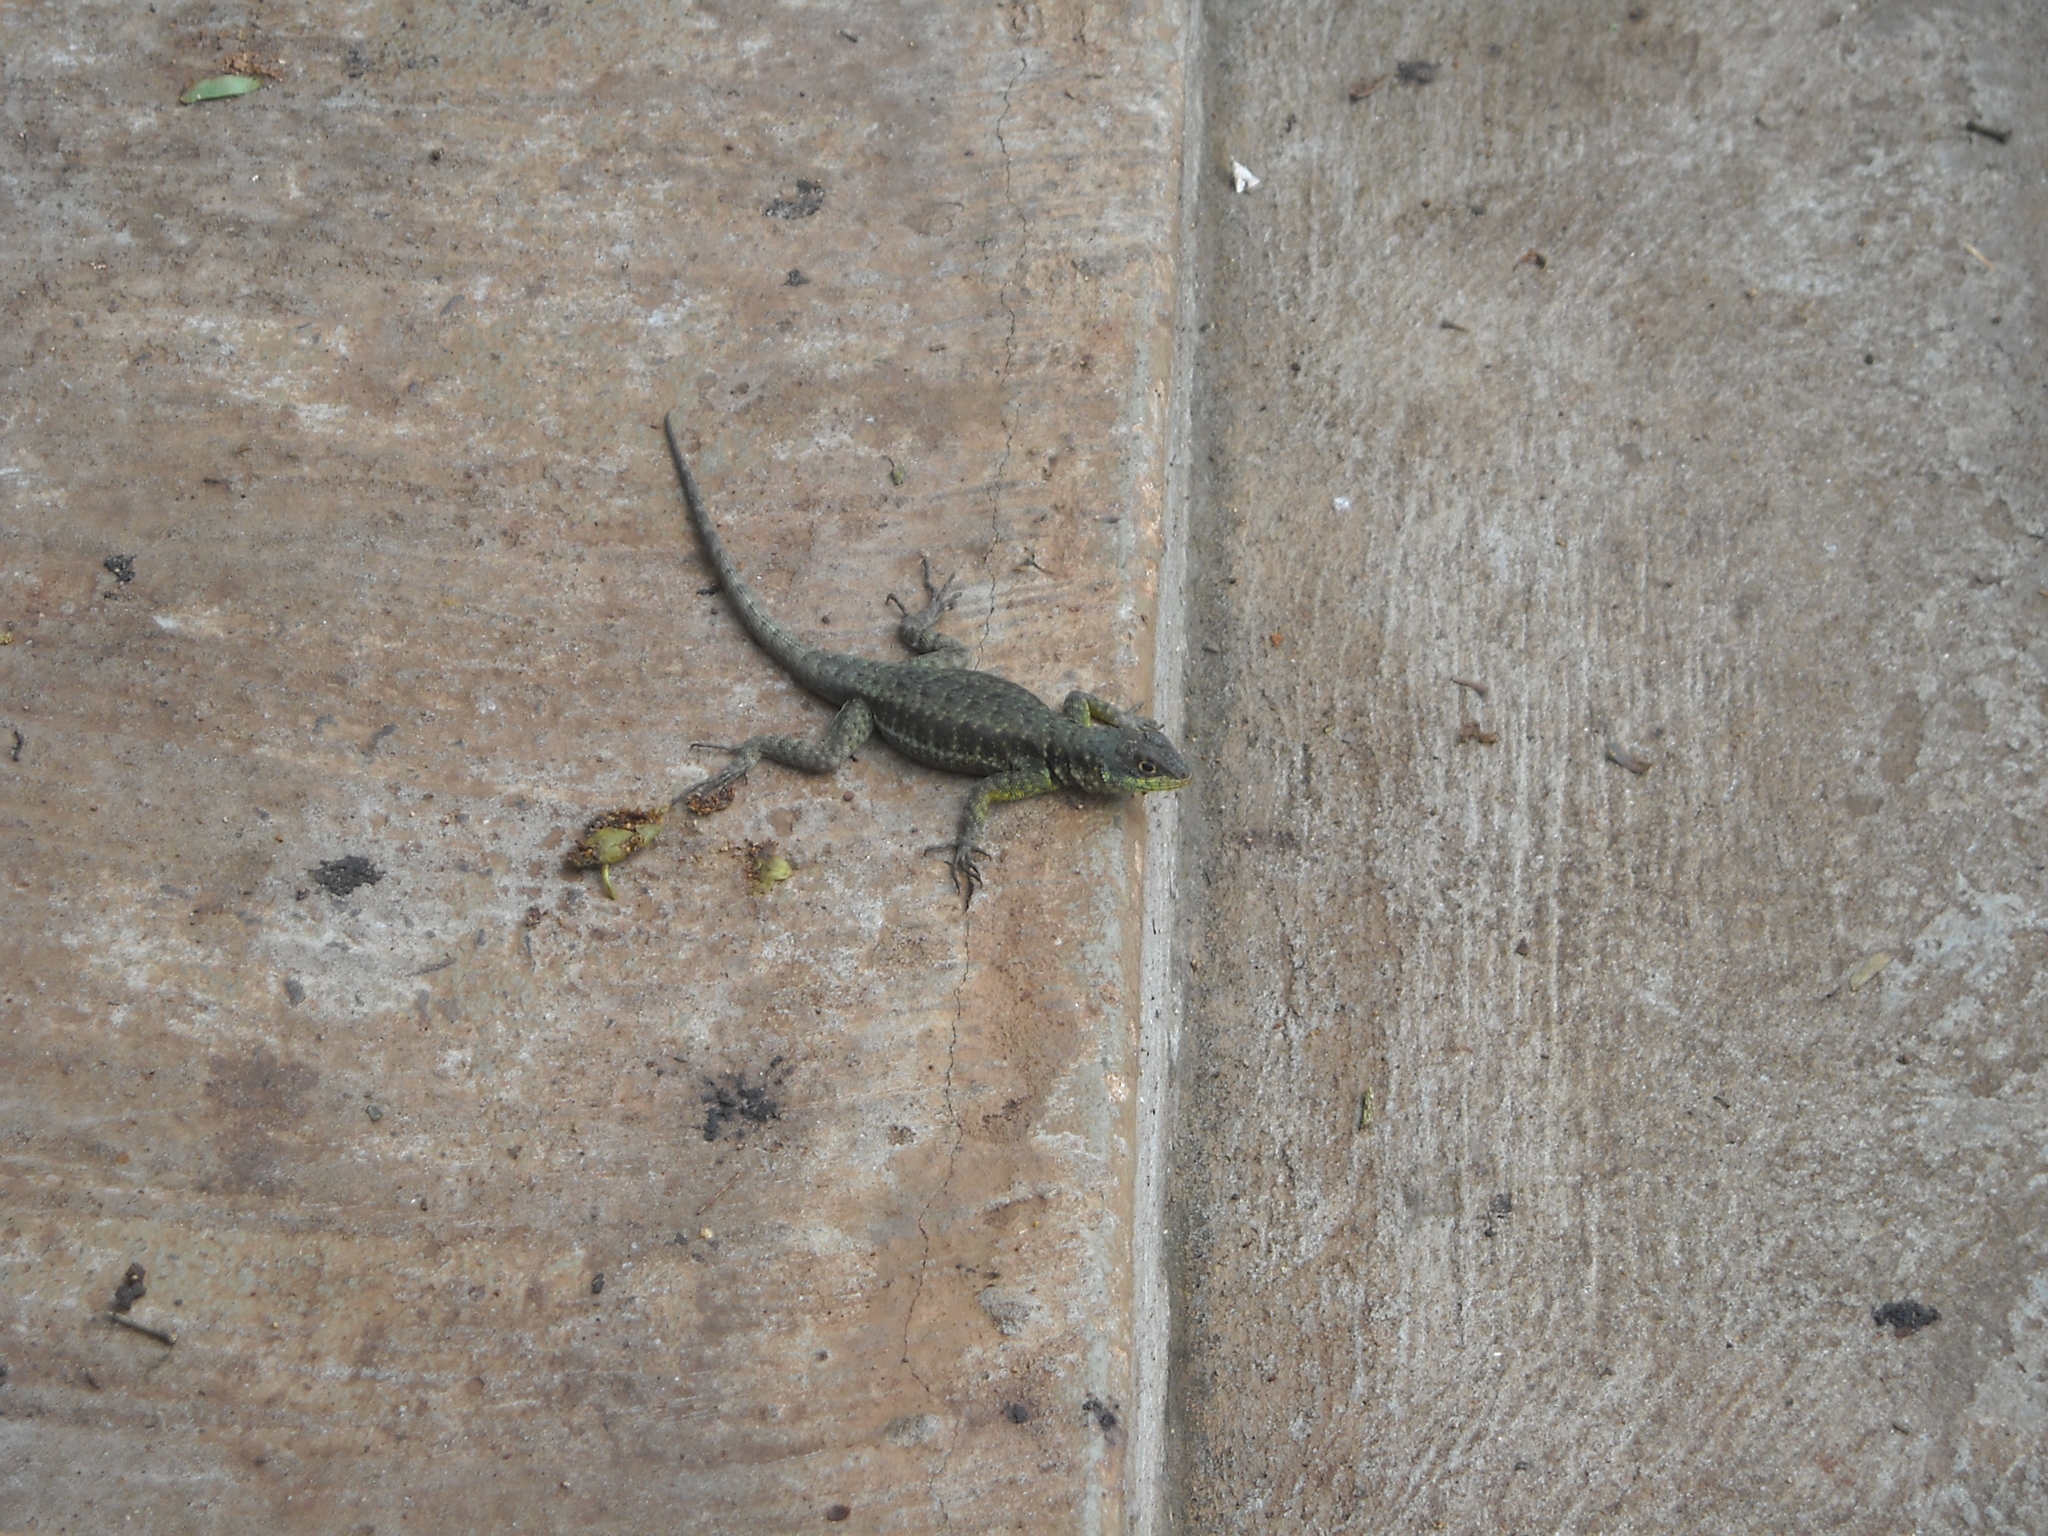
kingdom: Animalia
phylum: Chordata
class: Squamata
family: Tropiduridae
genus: Tropidurus
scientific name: Tropidurus catalanensis
